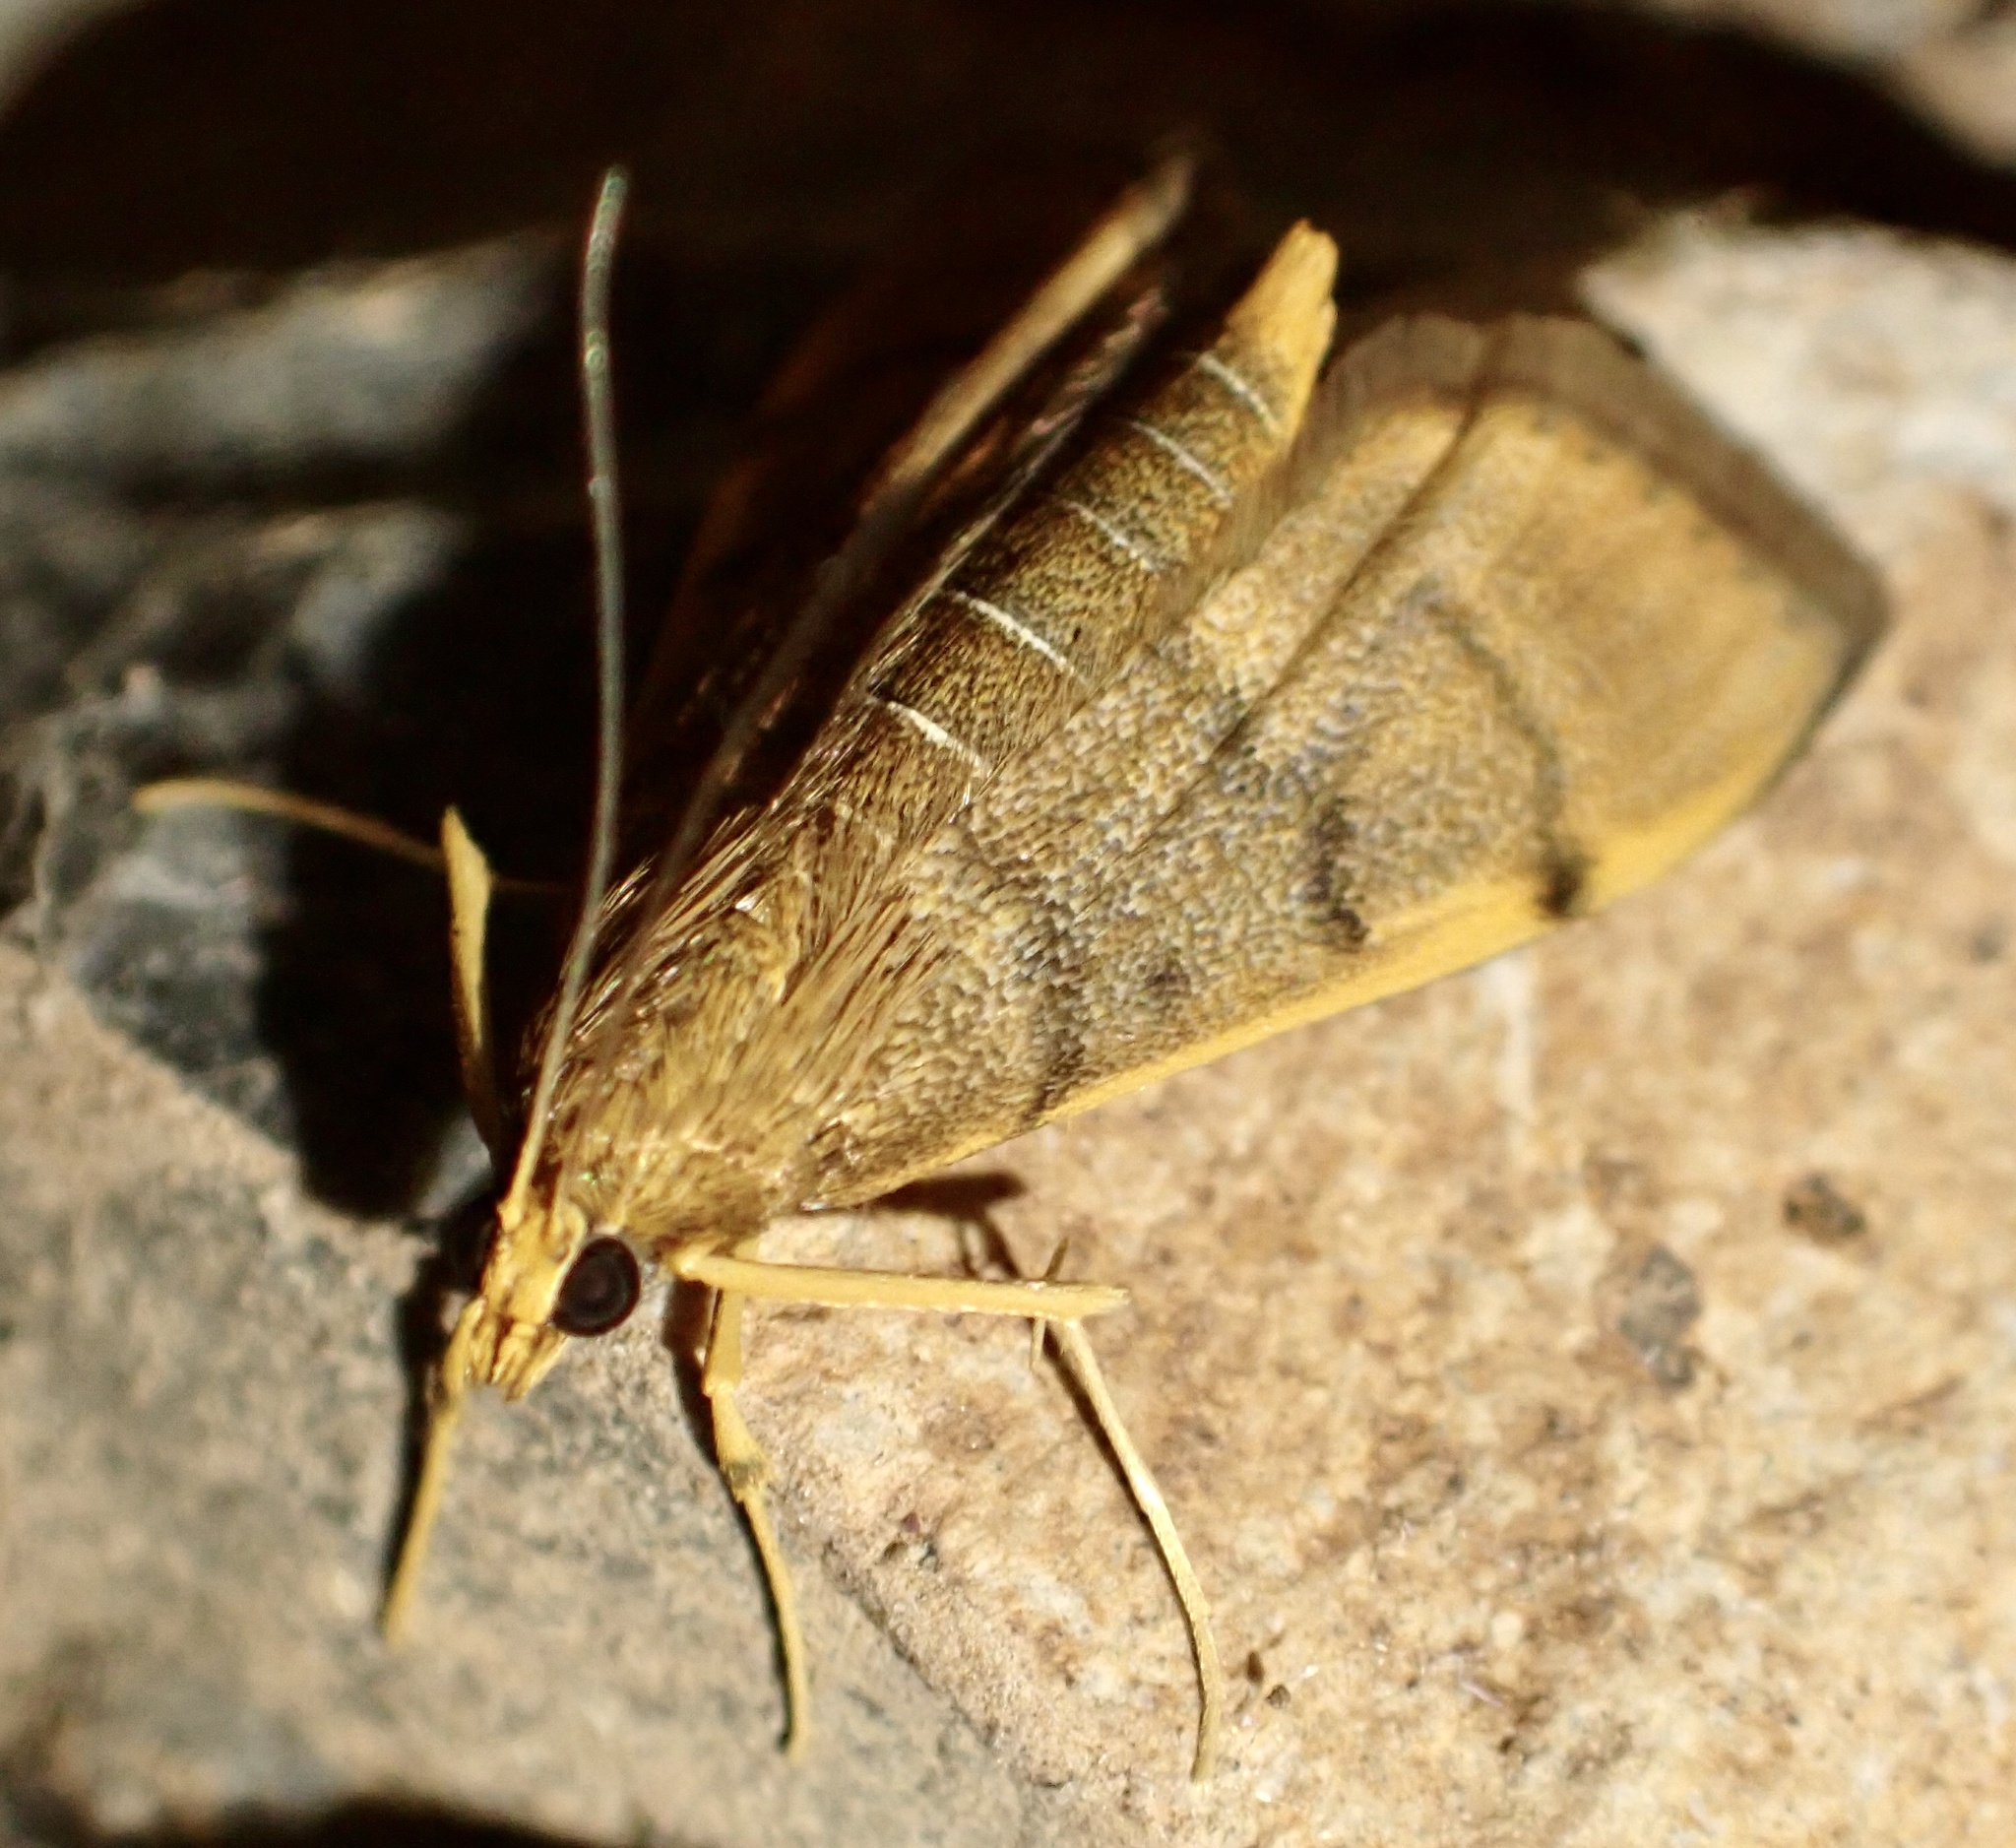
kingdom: Animalia
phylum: Arthropoda
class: Insecta
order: Lepidoptera
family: Crambidae
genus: Omiodes
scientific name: Omiodes indicata
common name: Bean-leaf webworm moth
